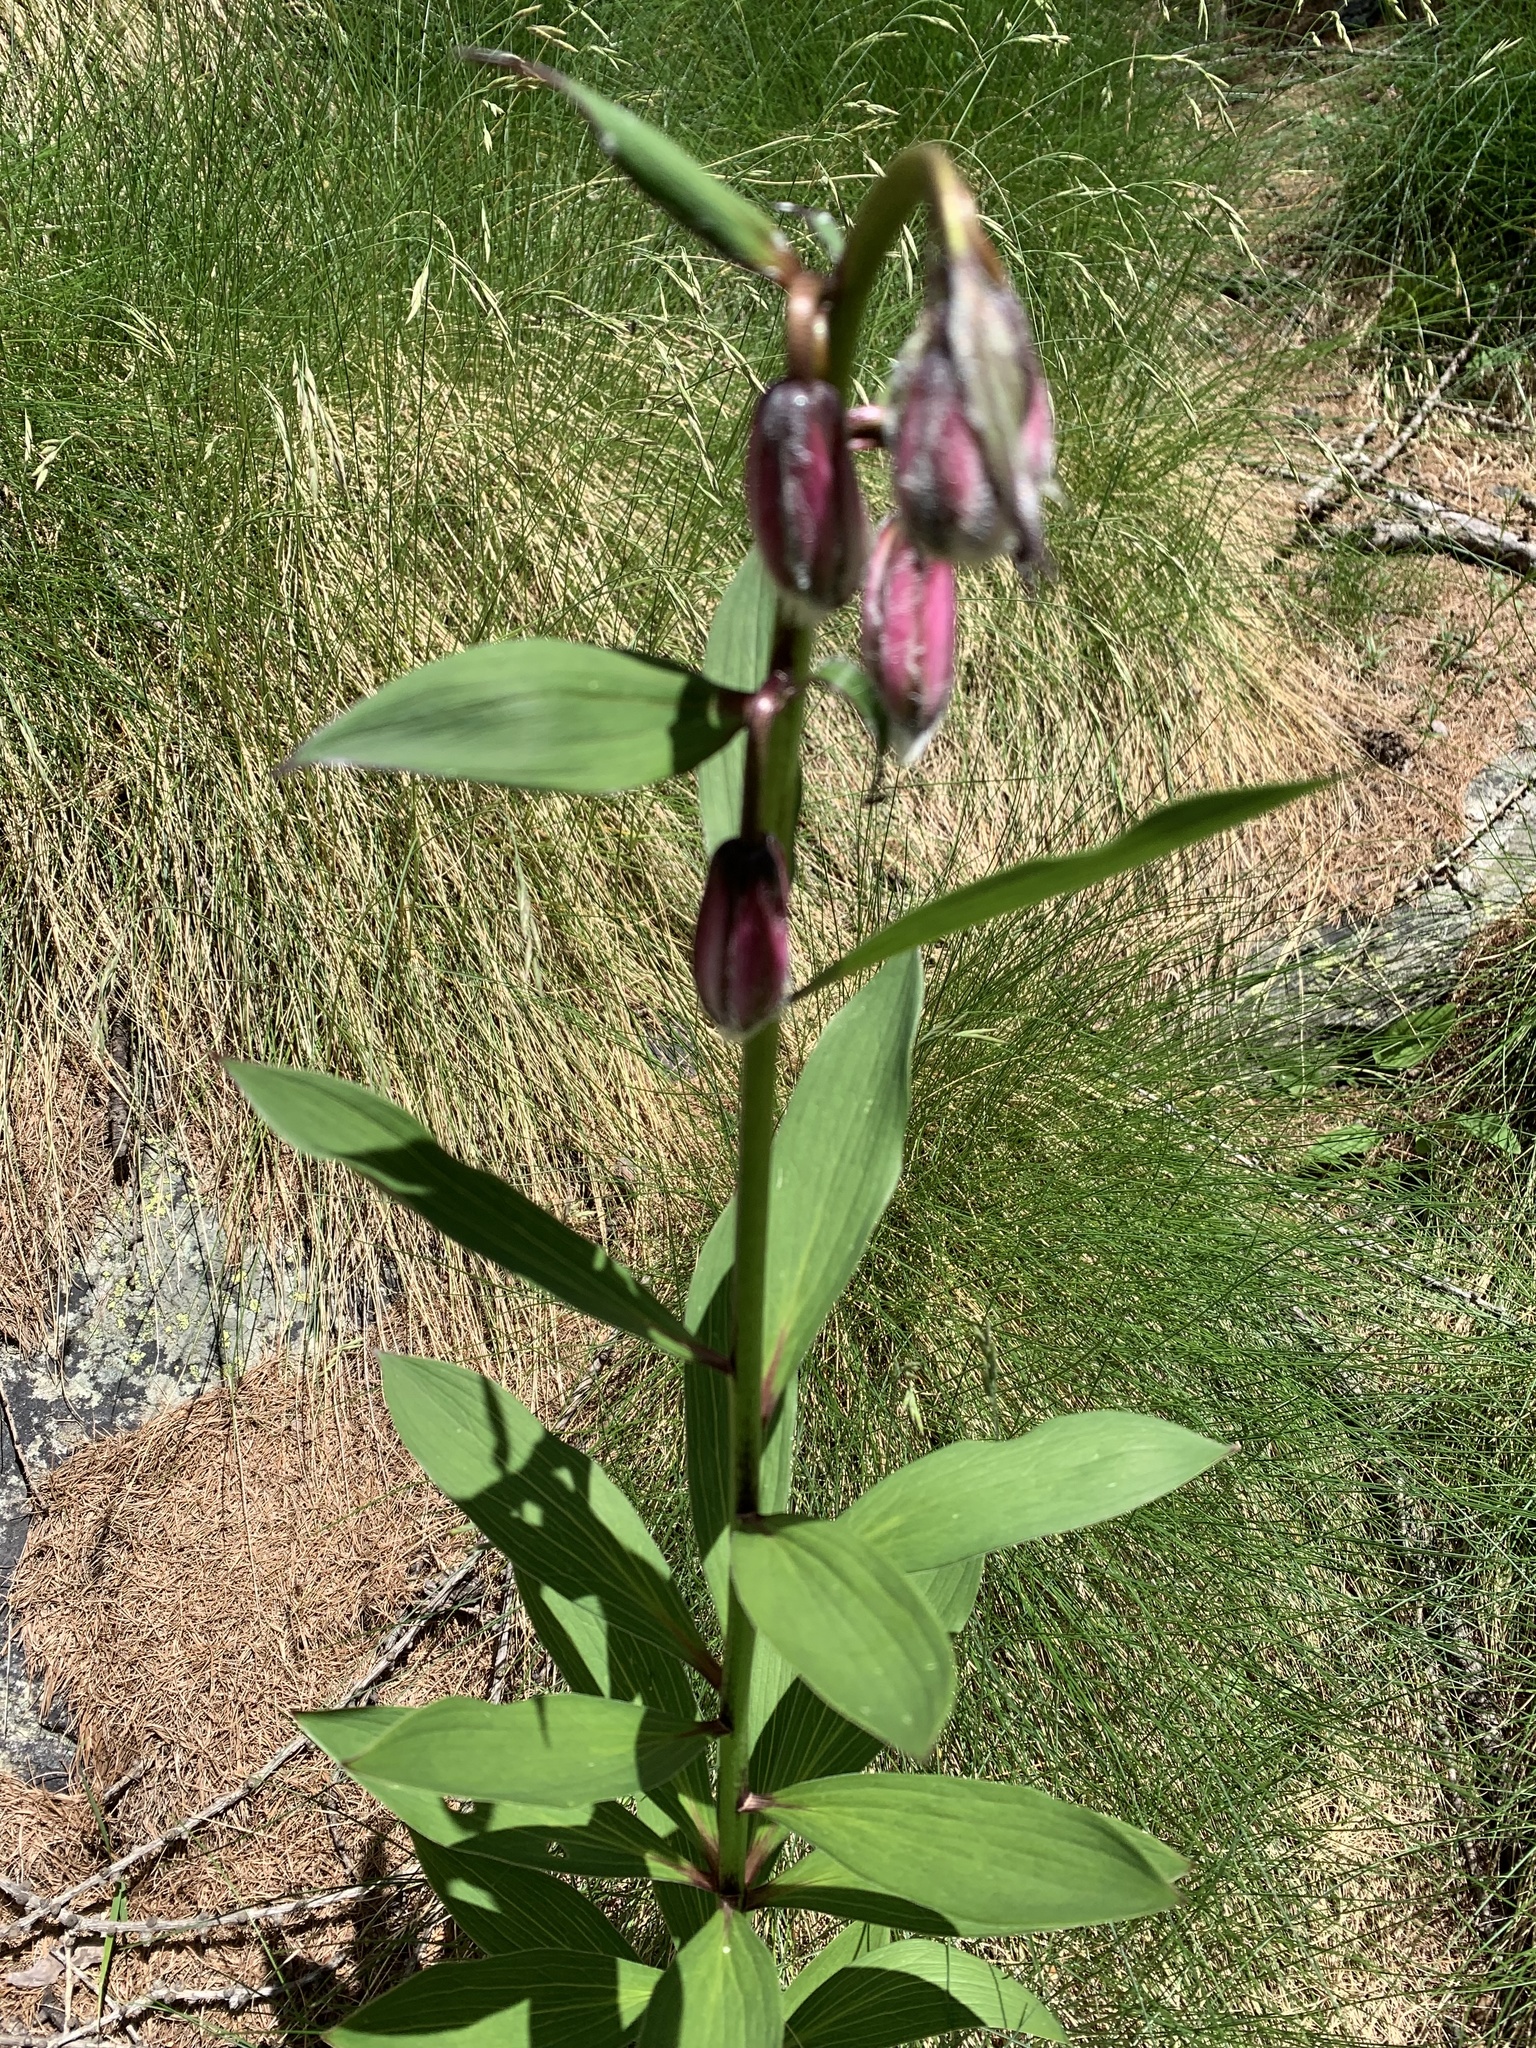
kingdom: Plantae
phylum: Tracheophyta
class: Liliopsida
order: Liliales
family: Liliaceae
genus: Lilium
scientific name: Lilium martagon
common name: Martagon lily
